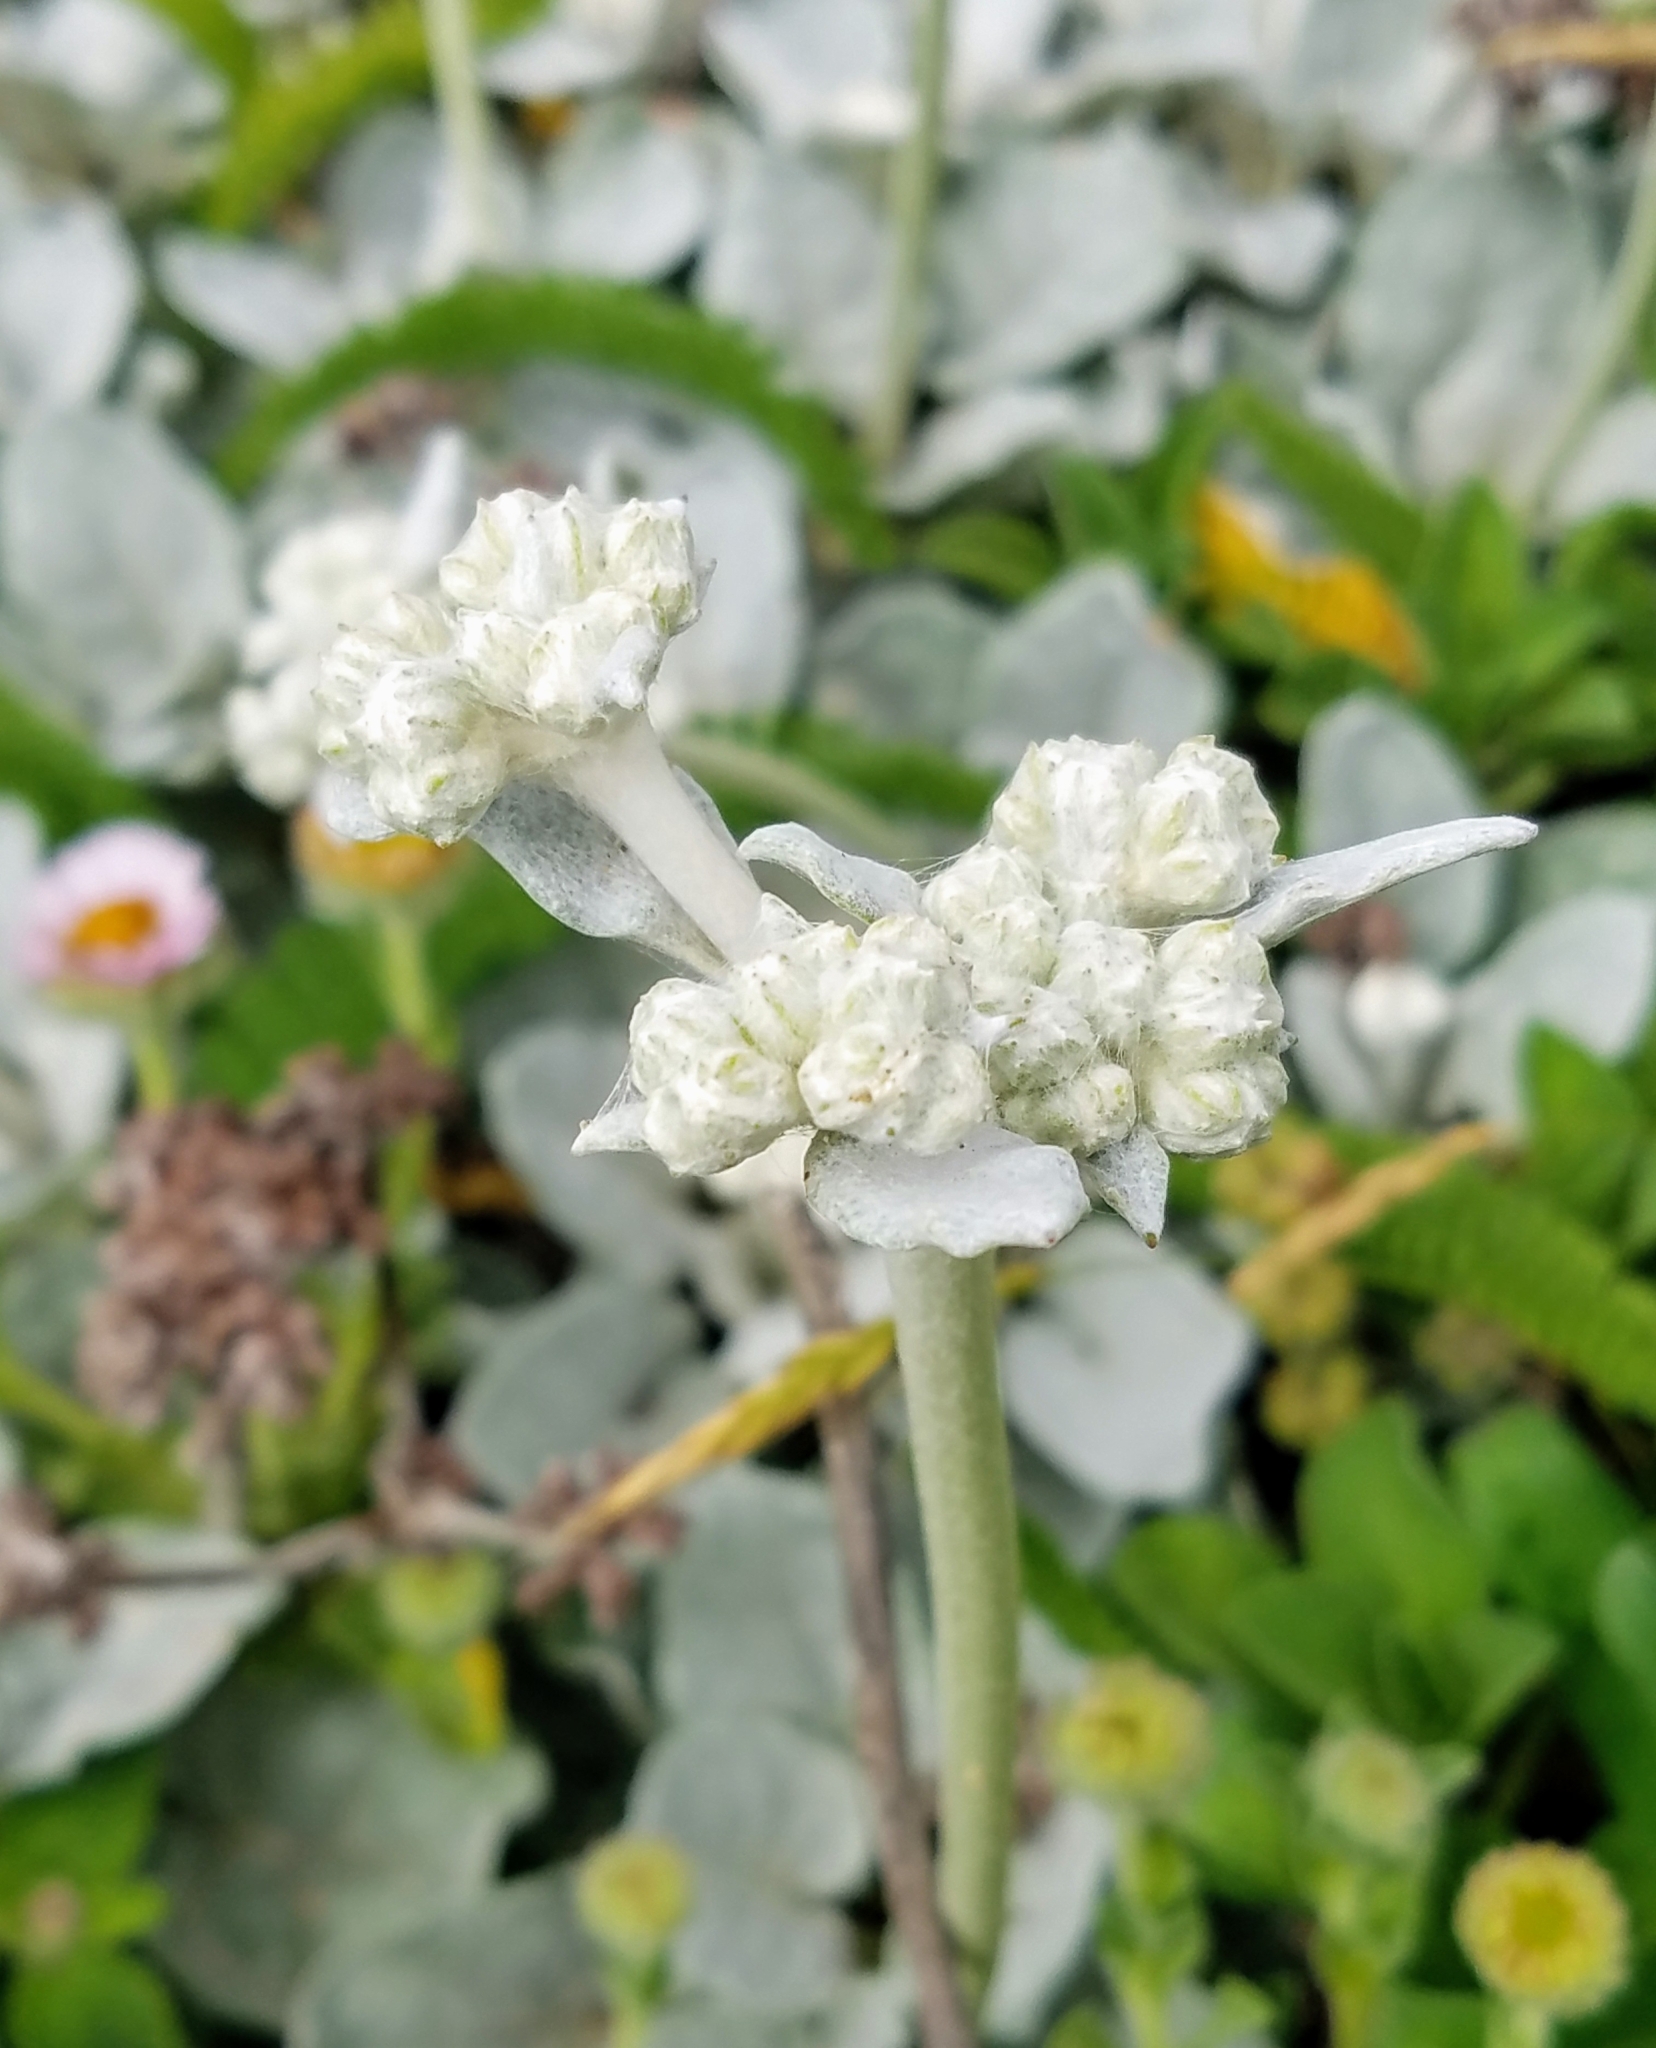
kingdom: Plantae
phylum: Tracheophyta
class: Magnoliopsida
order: Caryophyllales
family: Polygonaceae
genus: Eriogonum
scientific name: Eriogonum latifolium
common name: Seaside wild buckwheat
